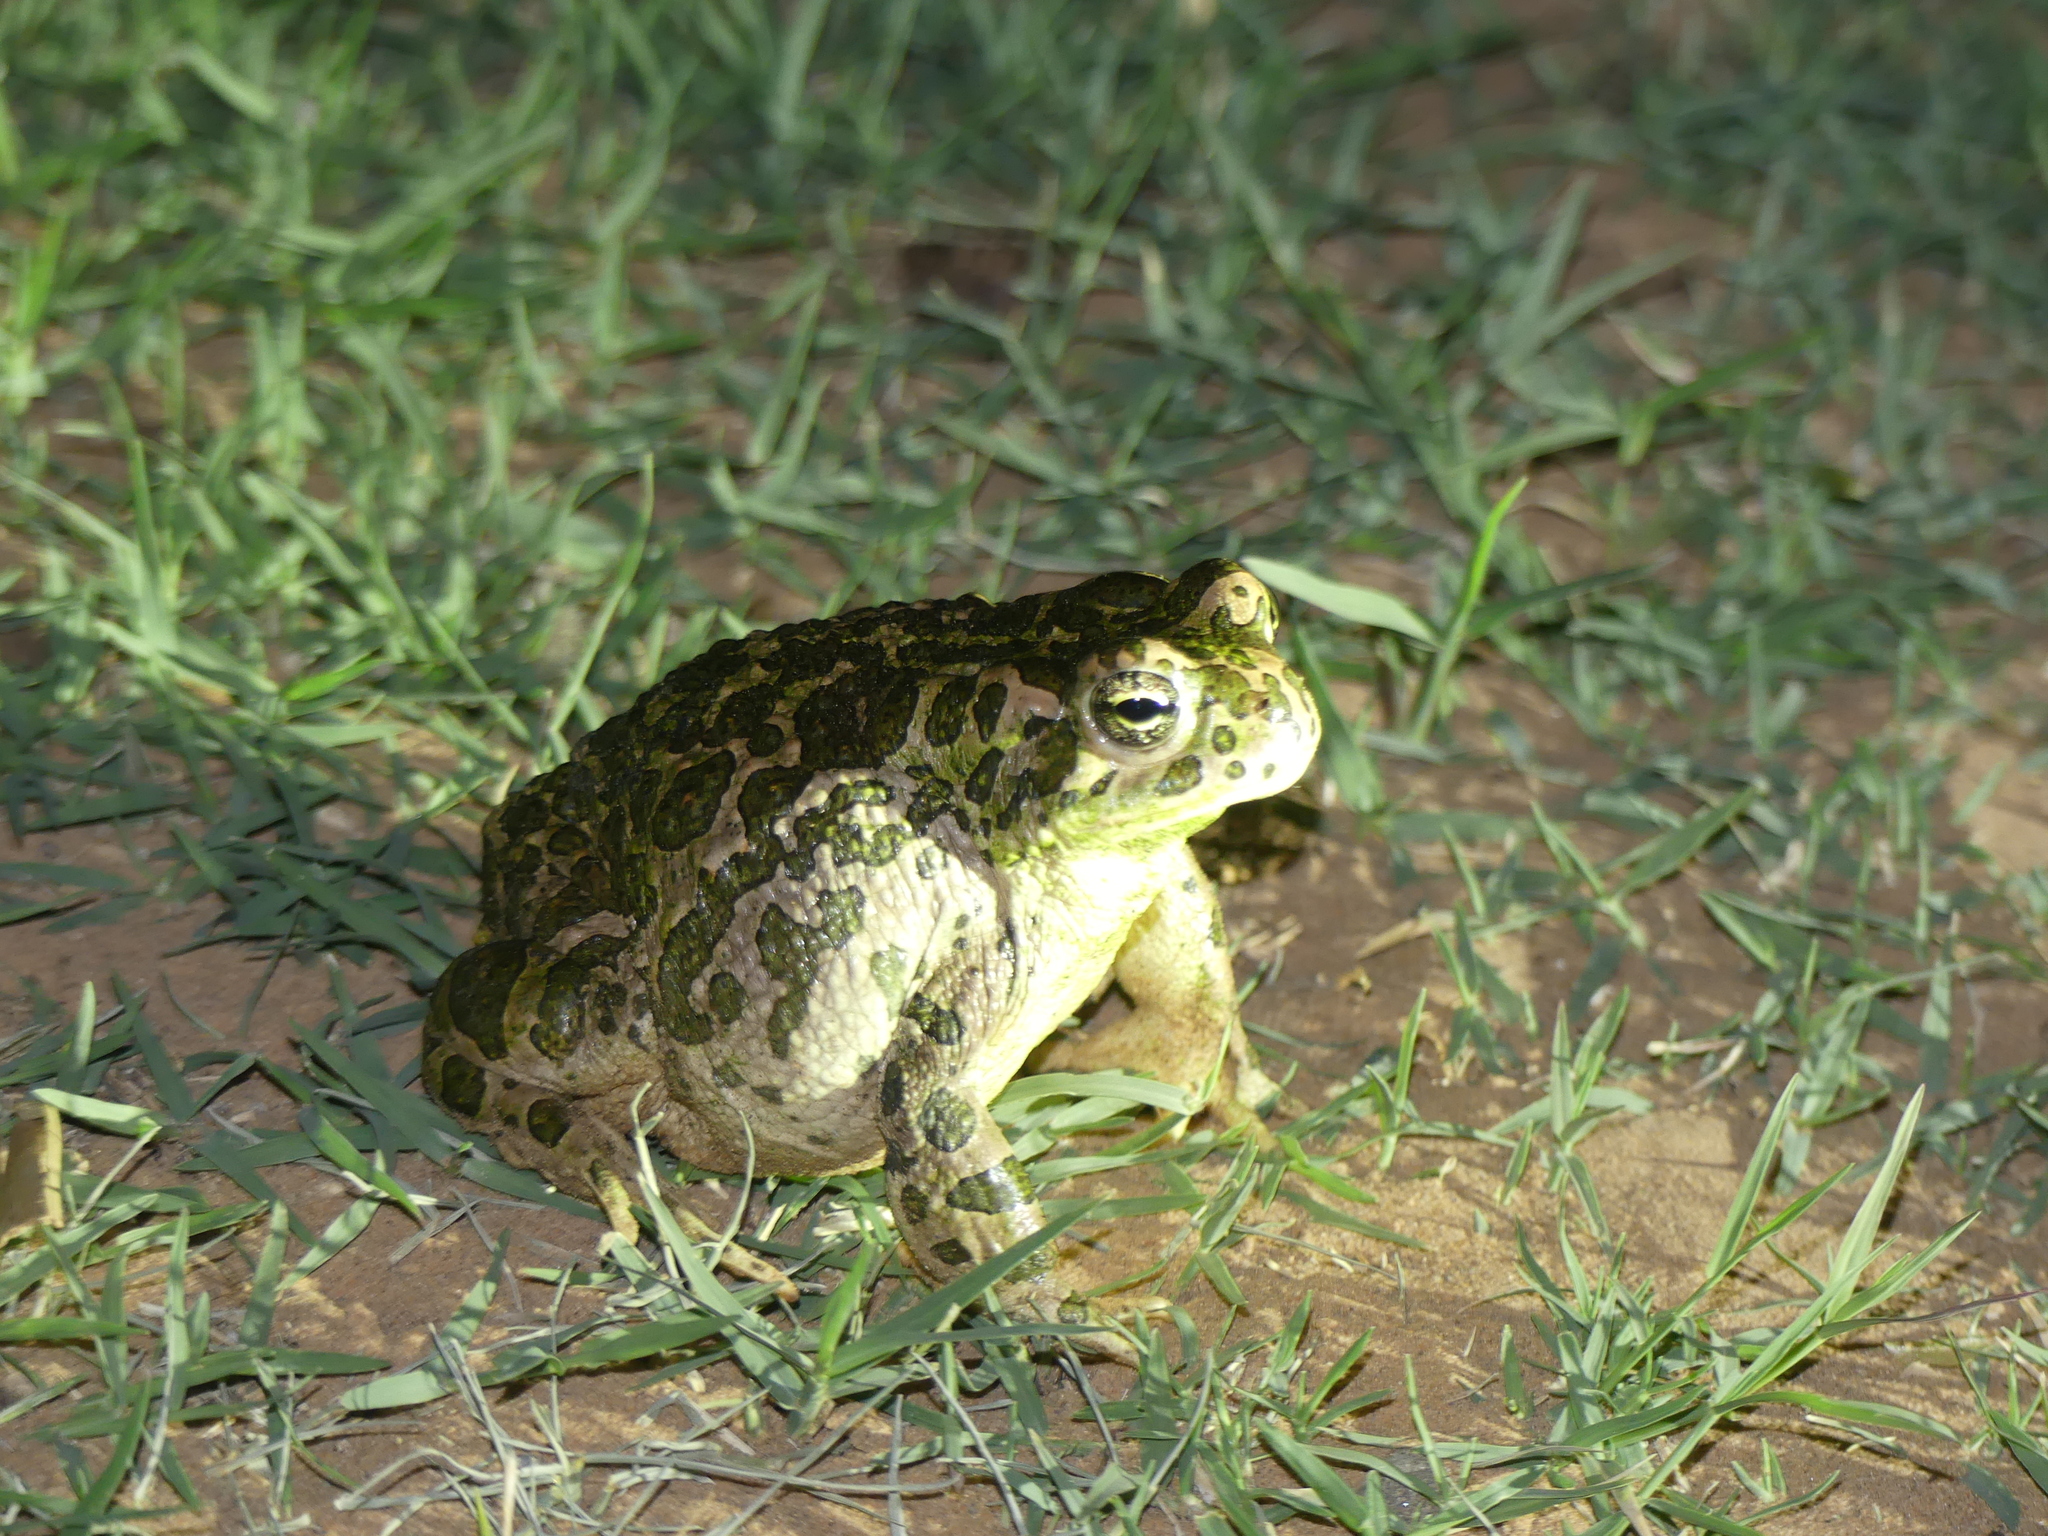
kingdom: Animalia
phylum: Chordata
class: Amphibia
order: Anura
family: Bufonidae
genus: Bufotes
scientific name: Bufotes boulengeri
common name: African green toad
